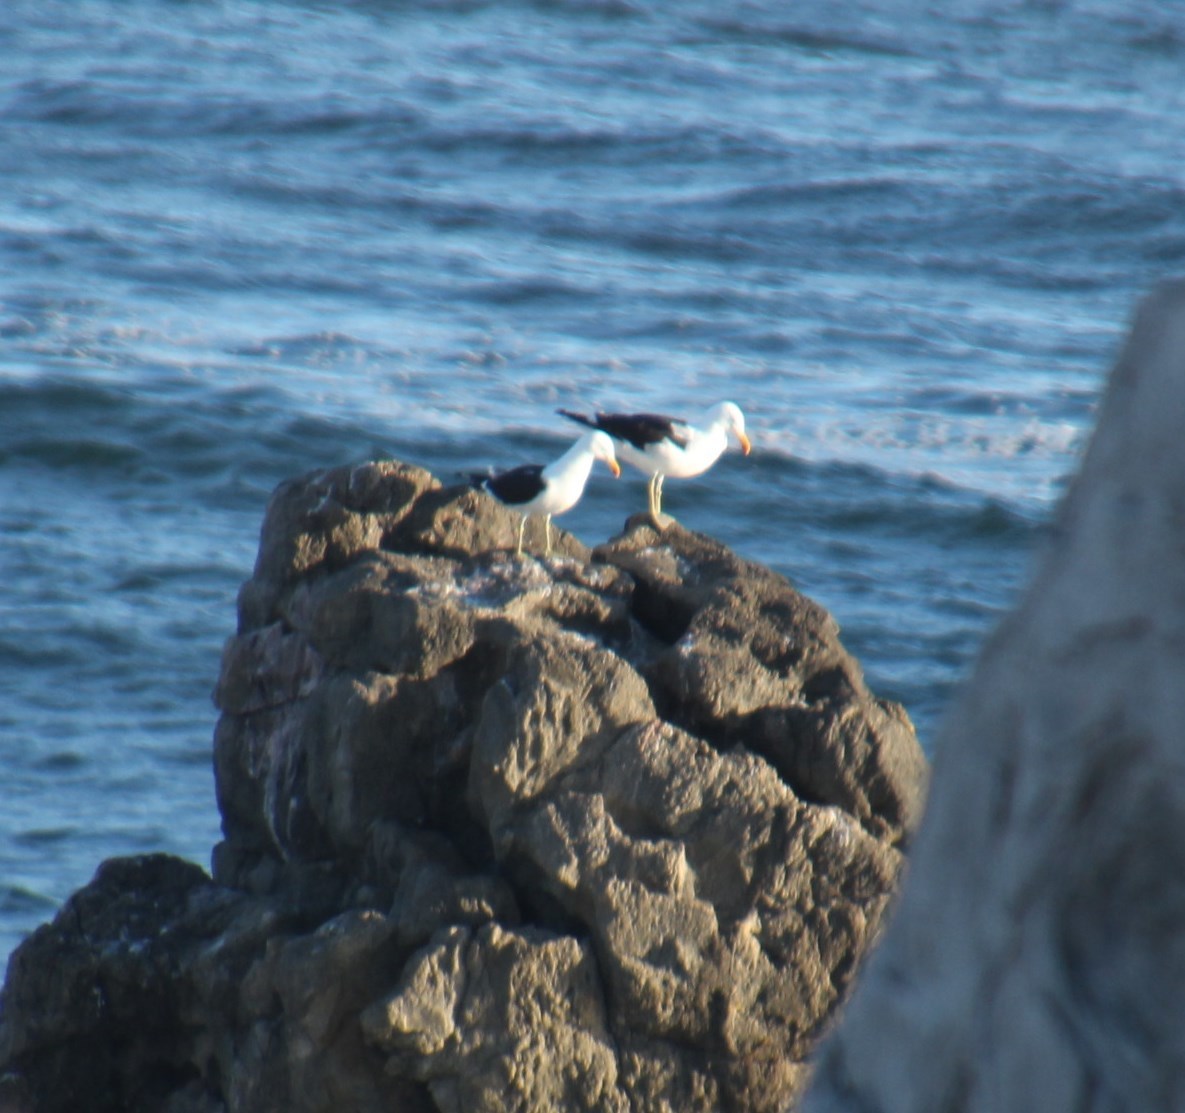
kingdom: Animalia
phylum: Chordata
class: Aves
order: Charadriiformes
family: Laridae
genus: Larus
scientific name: Larus dominicanus
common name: Kelp gull
